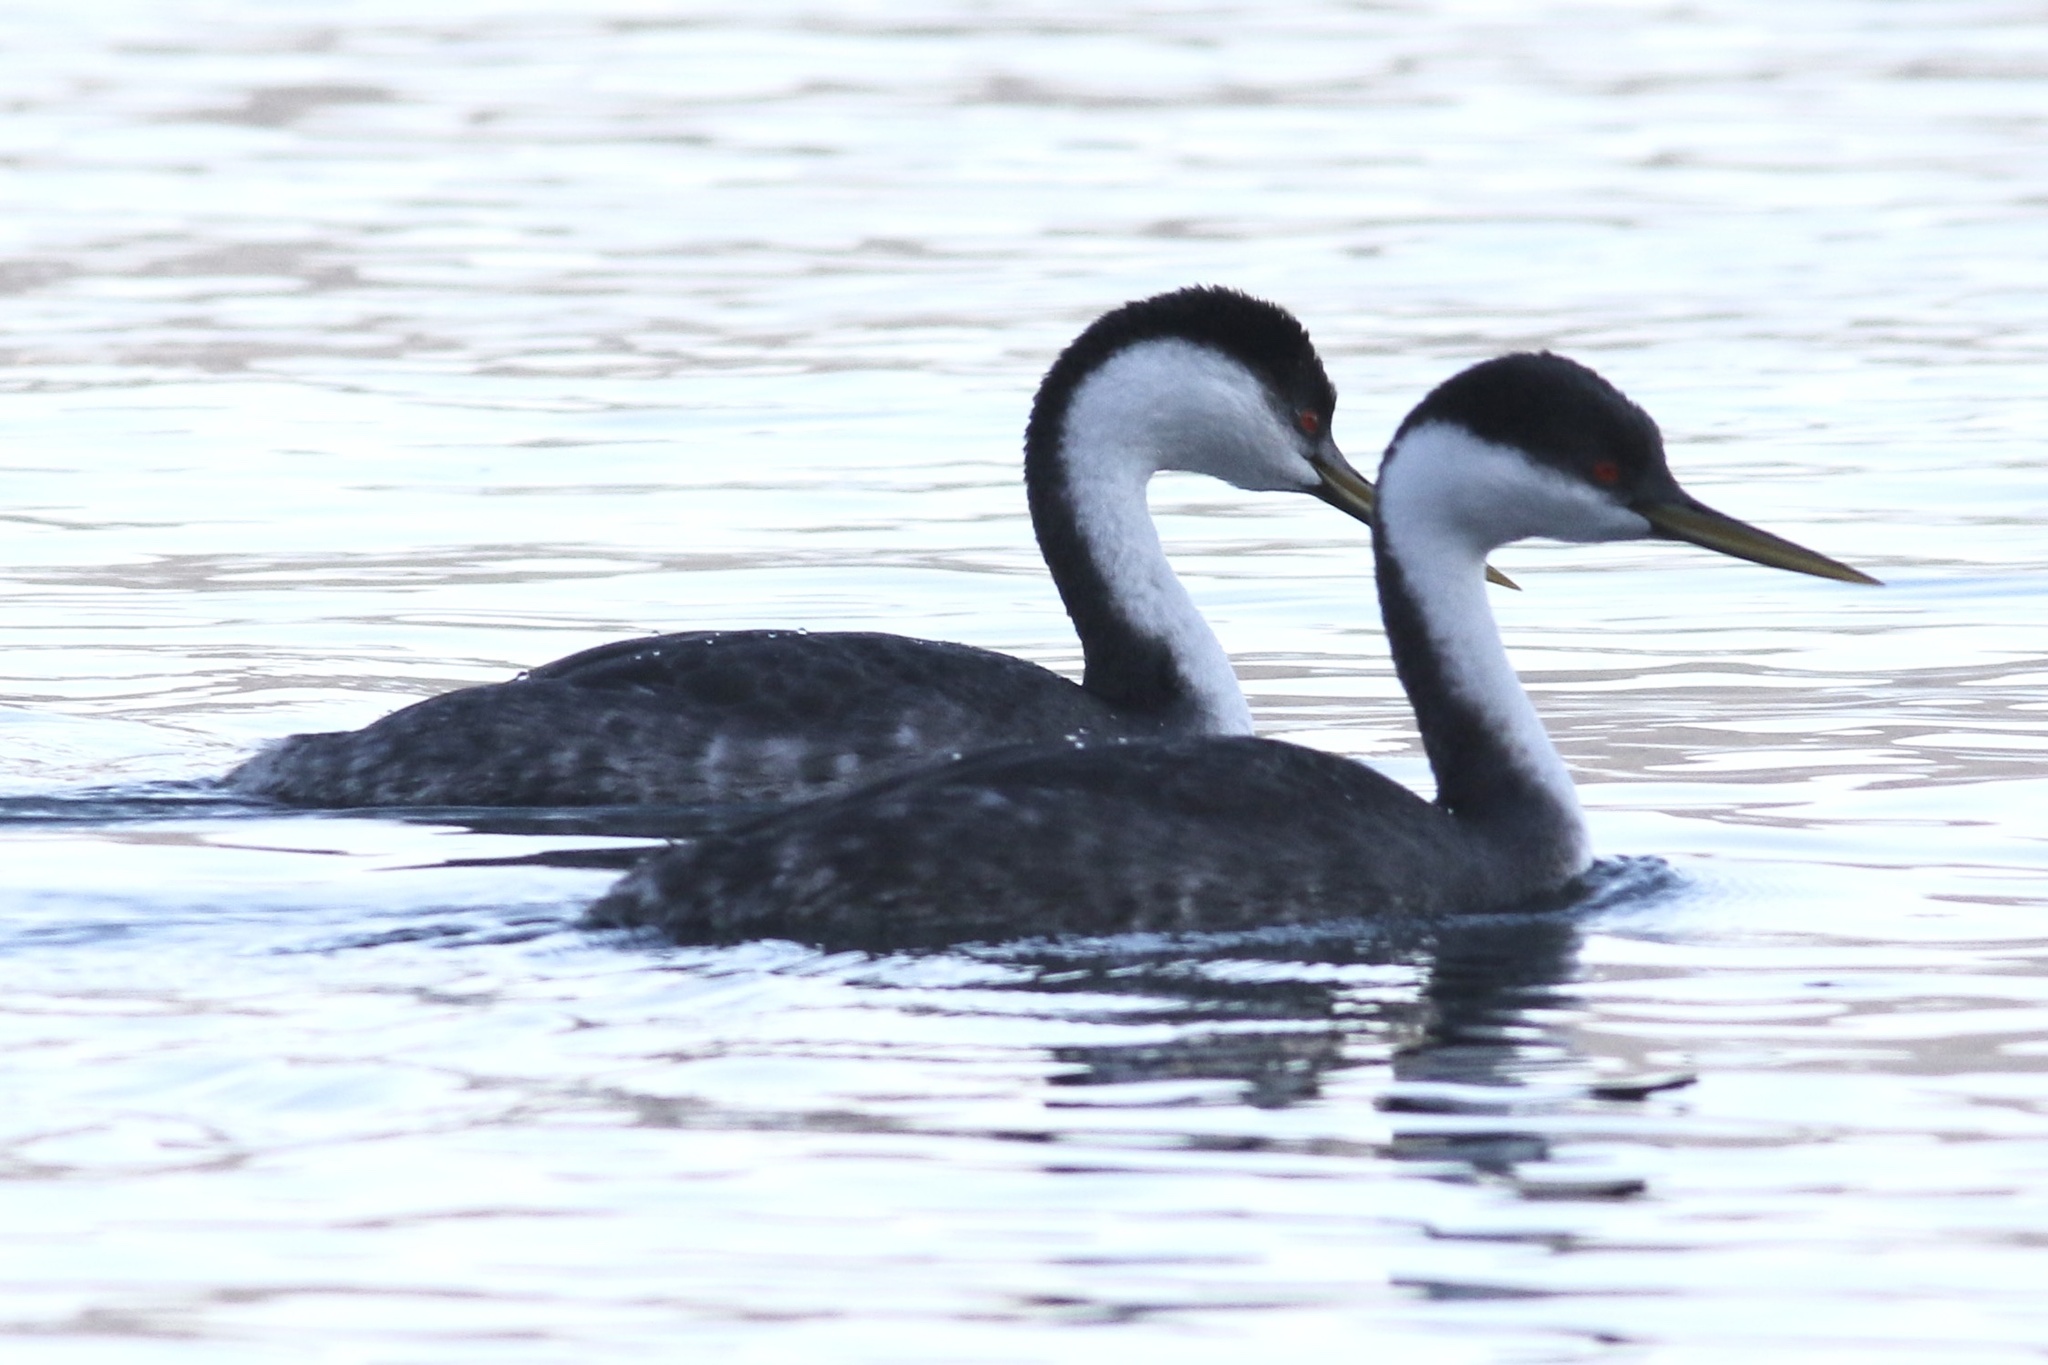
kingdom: Animalia
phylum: Chordata
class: Aves
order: Podicipediformes
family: Podicipedidae
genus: Aechmophorus
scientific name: Aechmophorus occidentalis
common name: Western grebe
